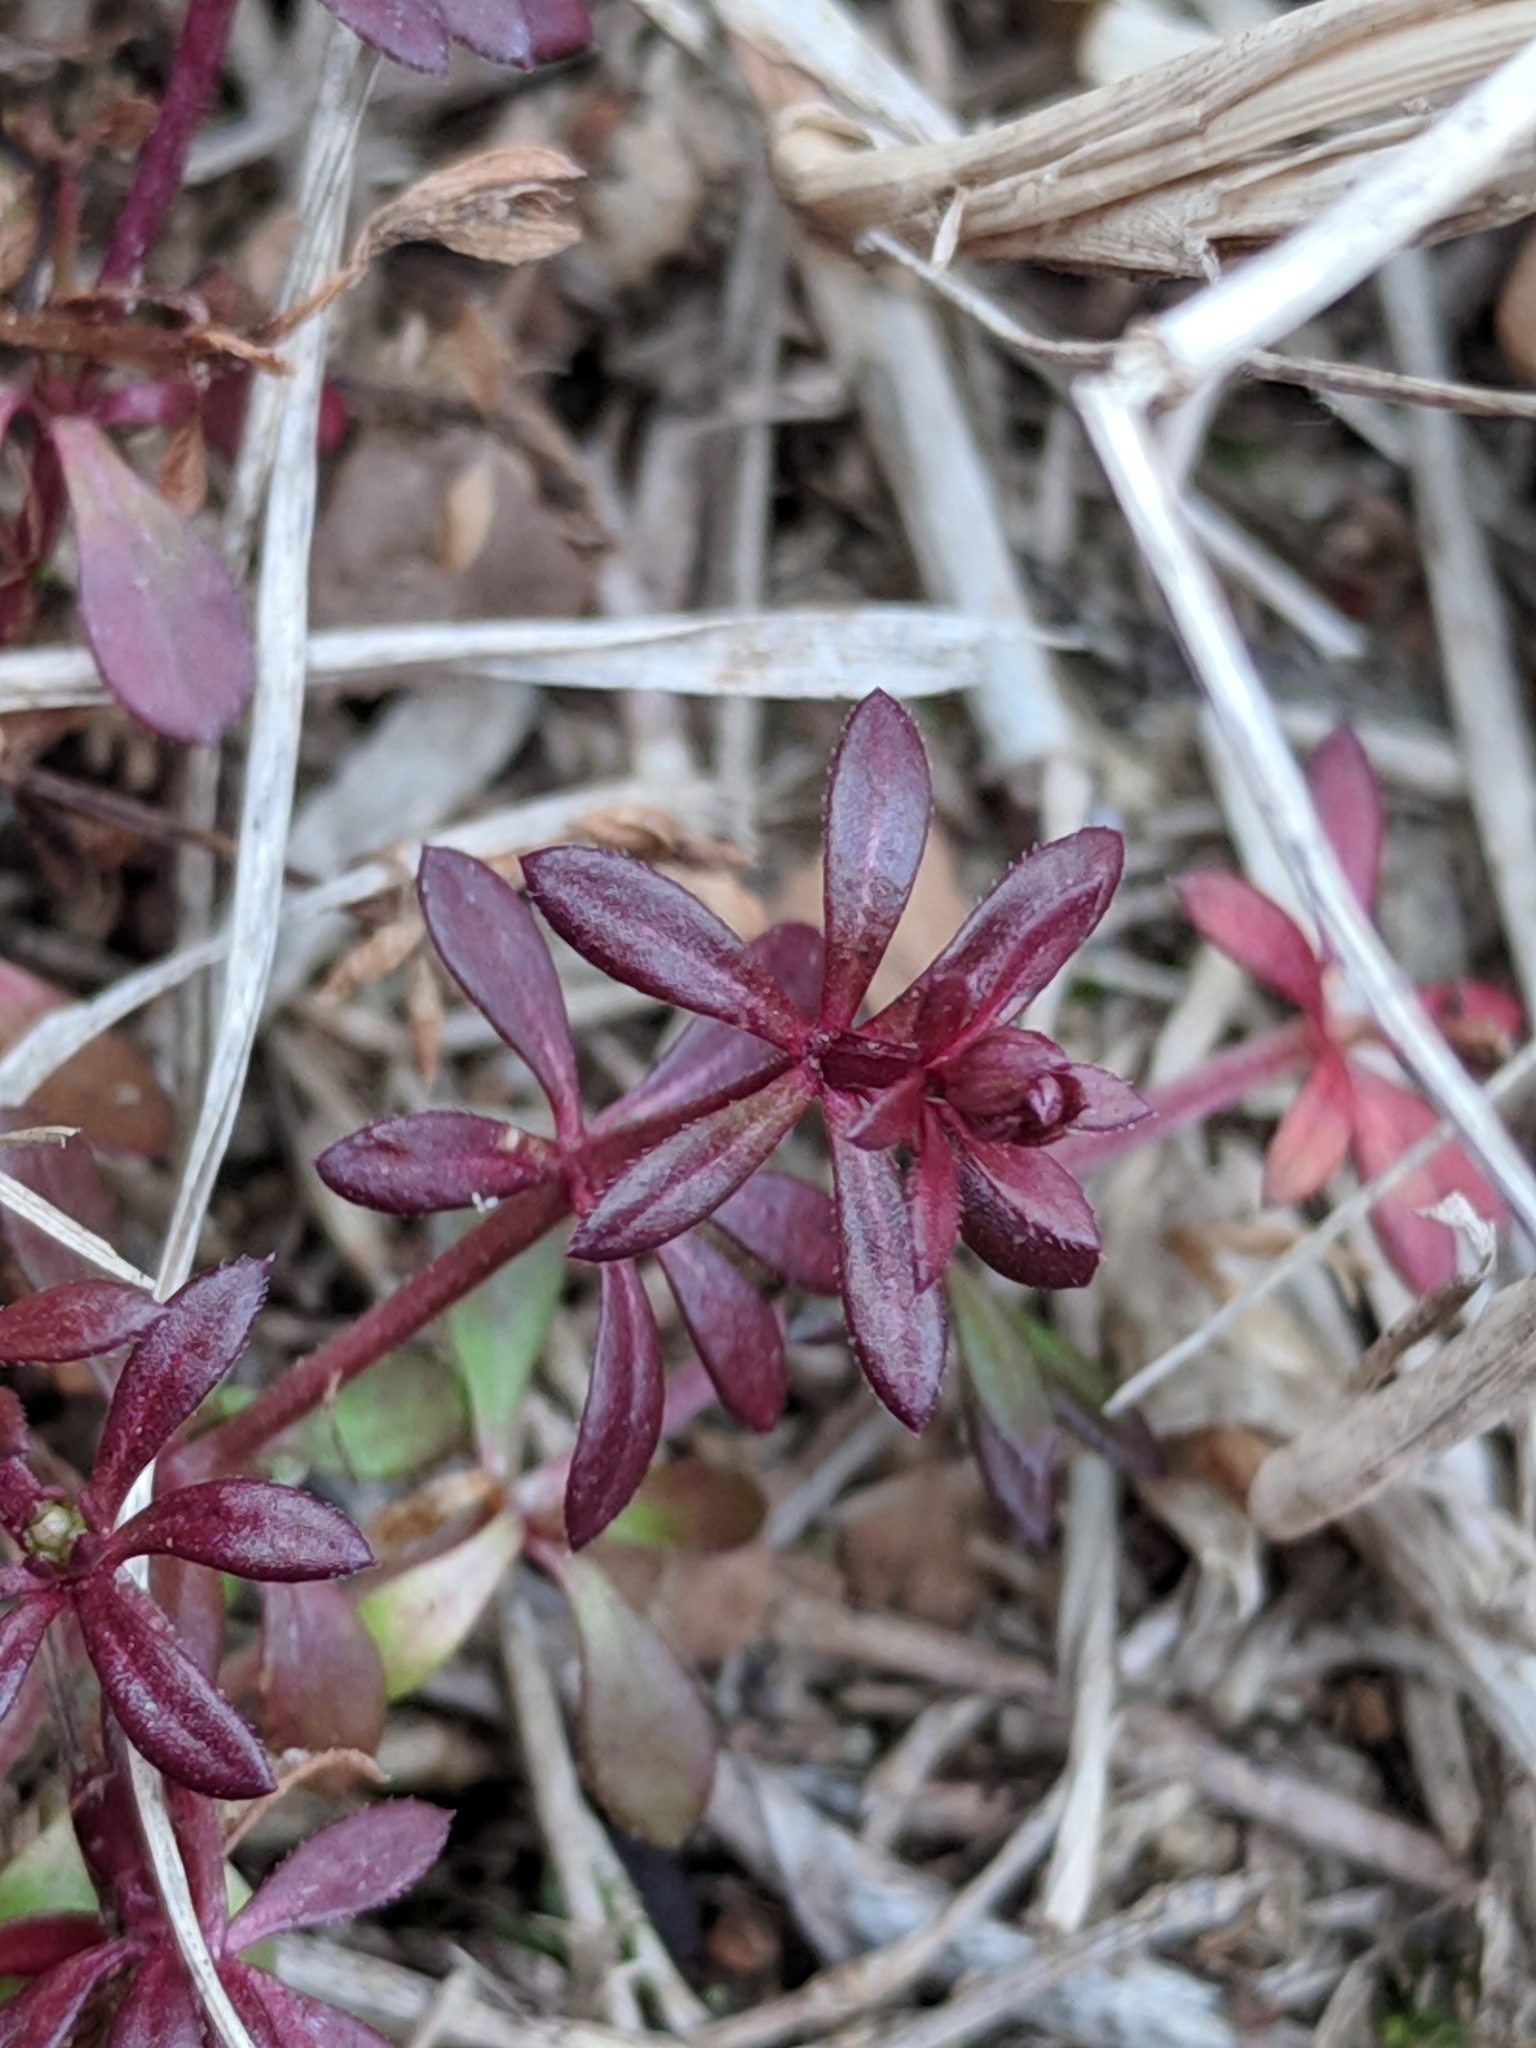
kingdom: Plantae
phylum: Tracheophyta
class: Magnoliopsida
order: Gentianales
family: Rubiaceae
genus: Galium
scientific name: Galium aparine
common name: Cleavers
